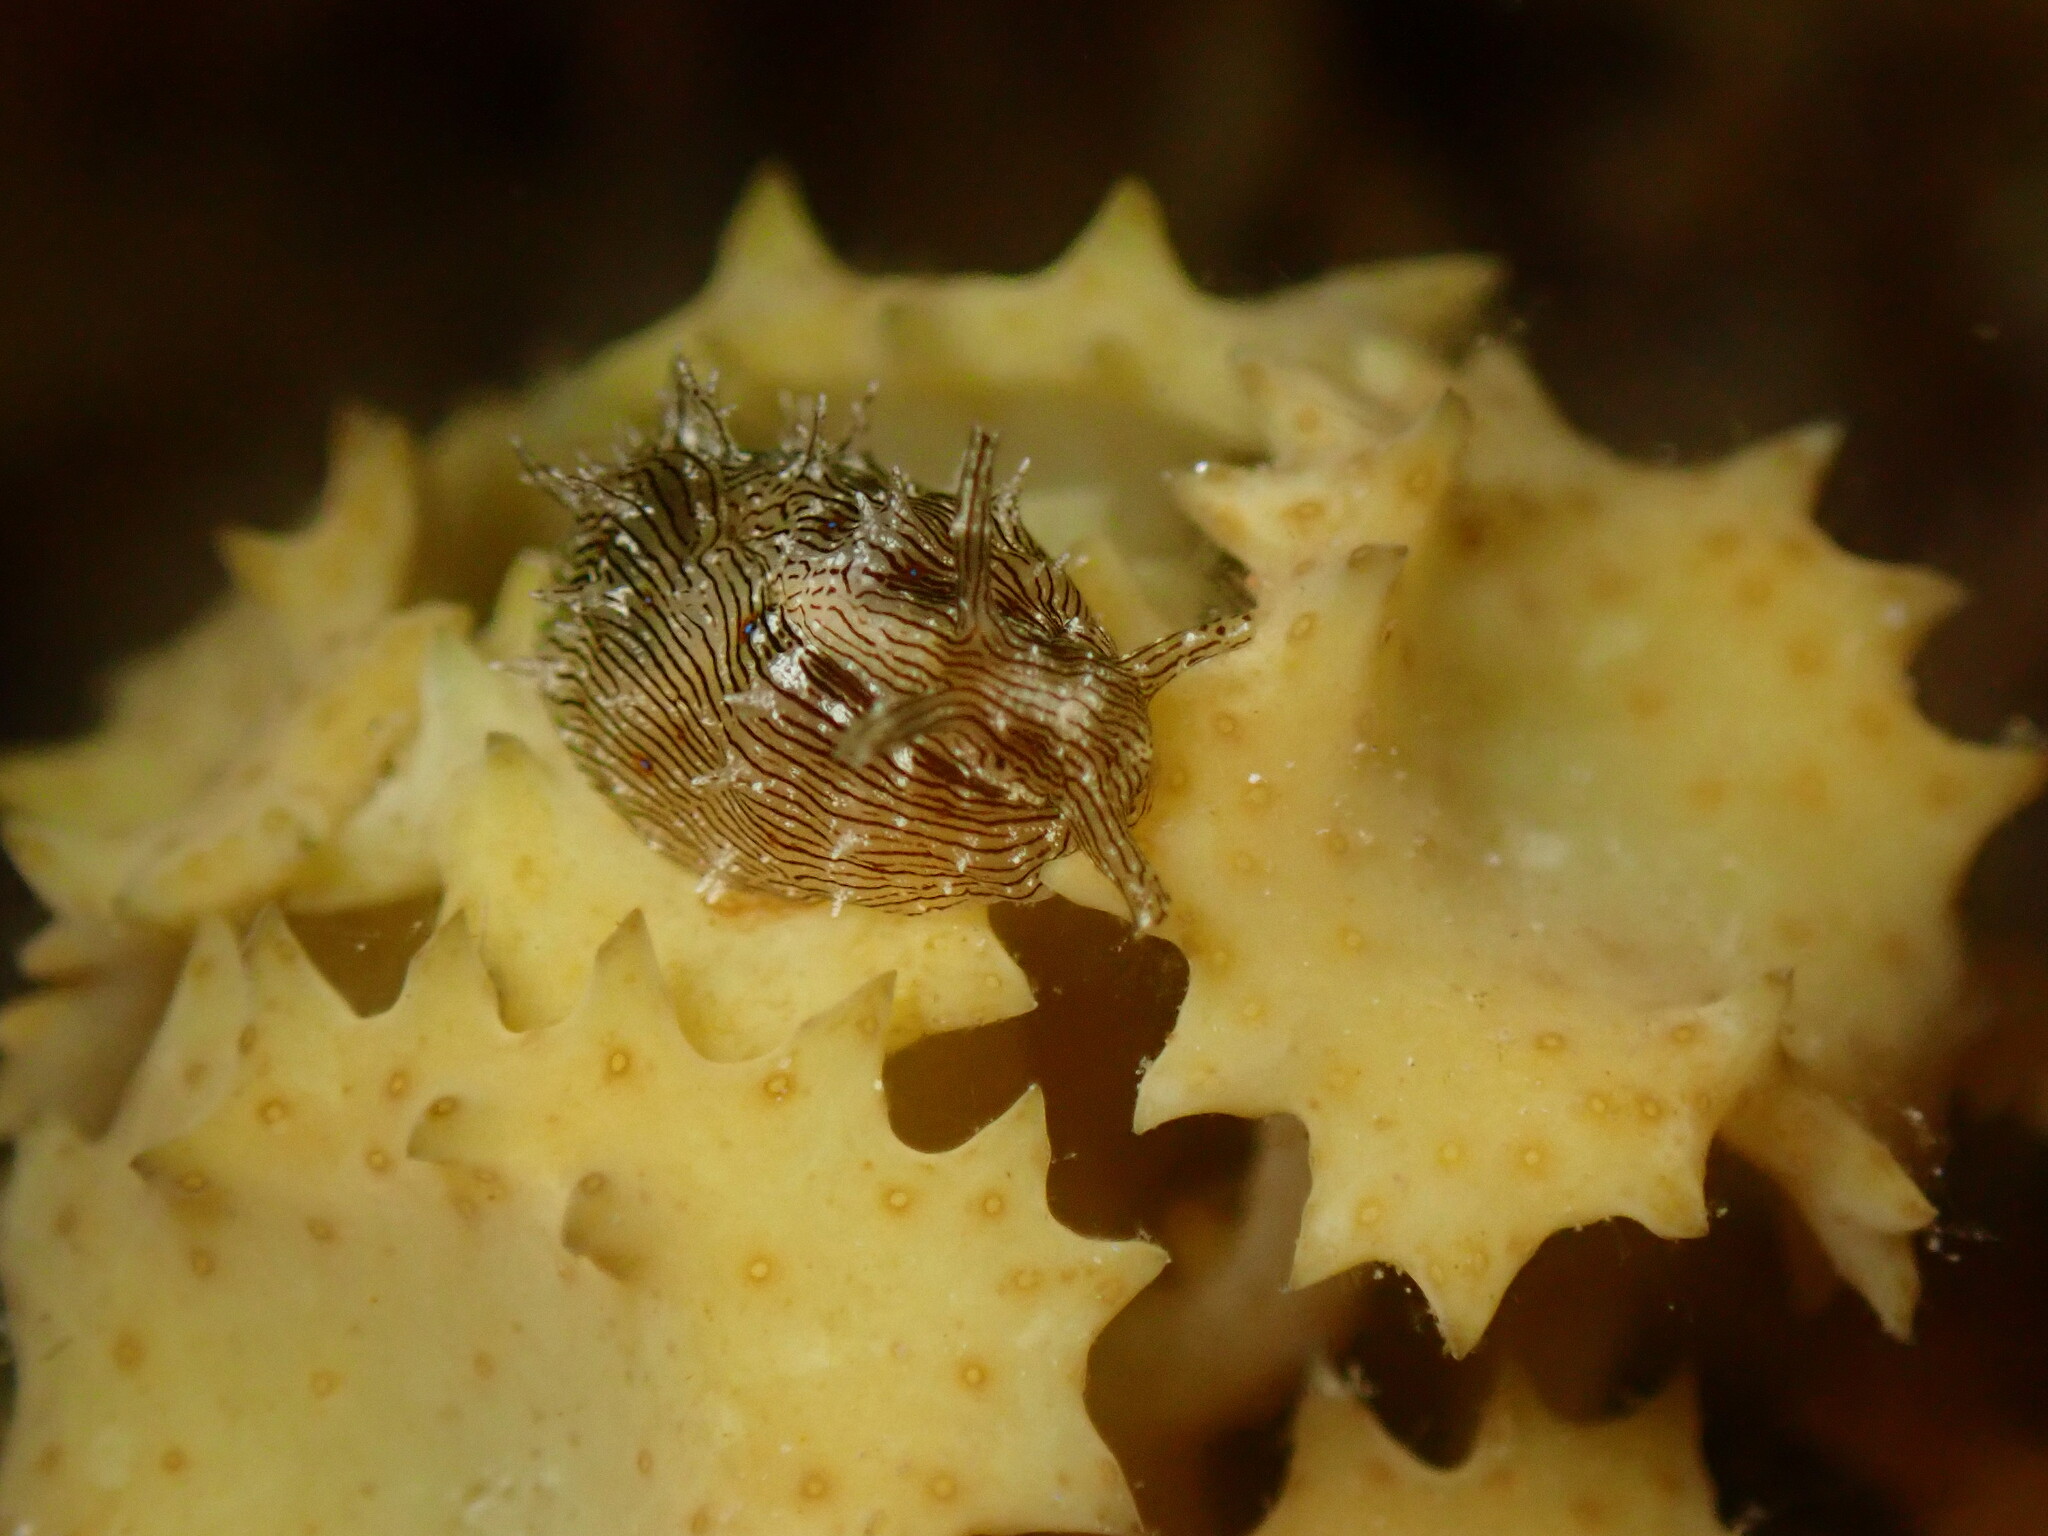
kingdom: Animalia
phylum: Mollusca
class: Gastropoda
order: Aplysiida
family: Aplysiidae
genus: Stylocheilus
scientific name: Stylocheilus striatus
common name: Striated seahare
